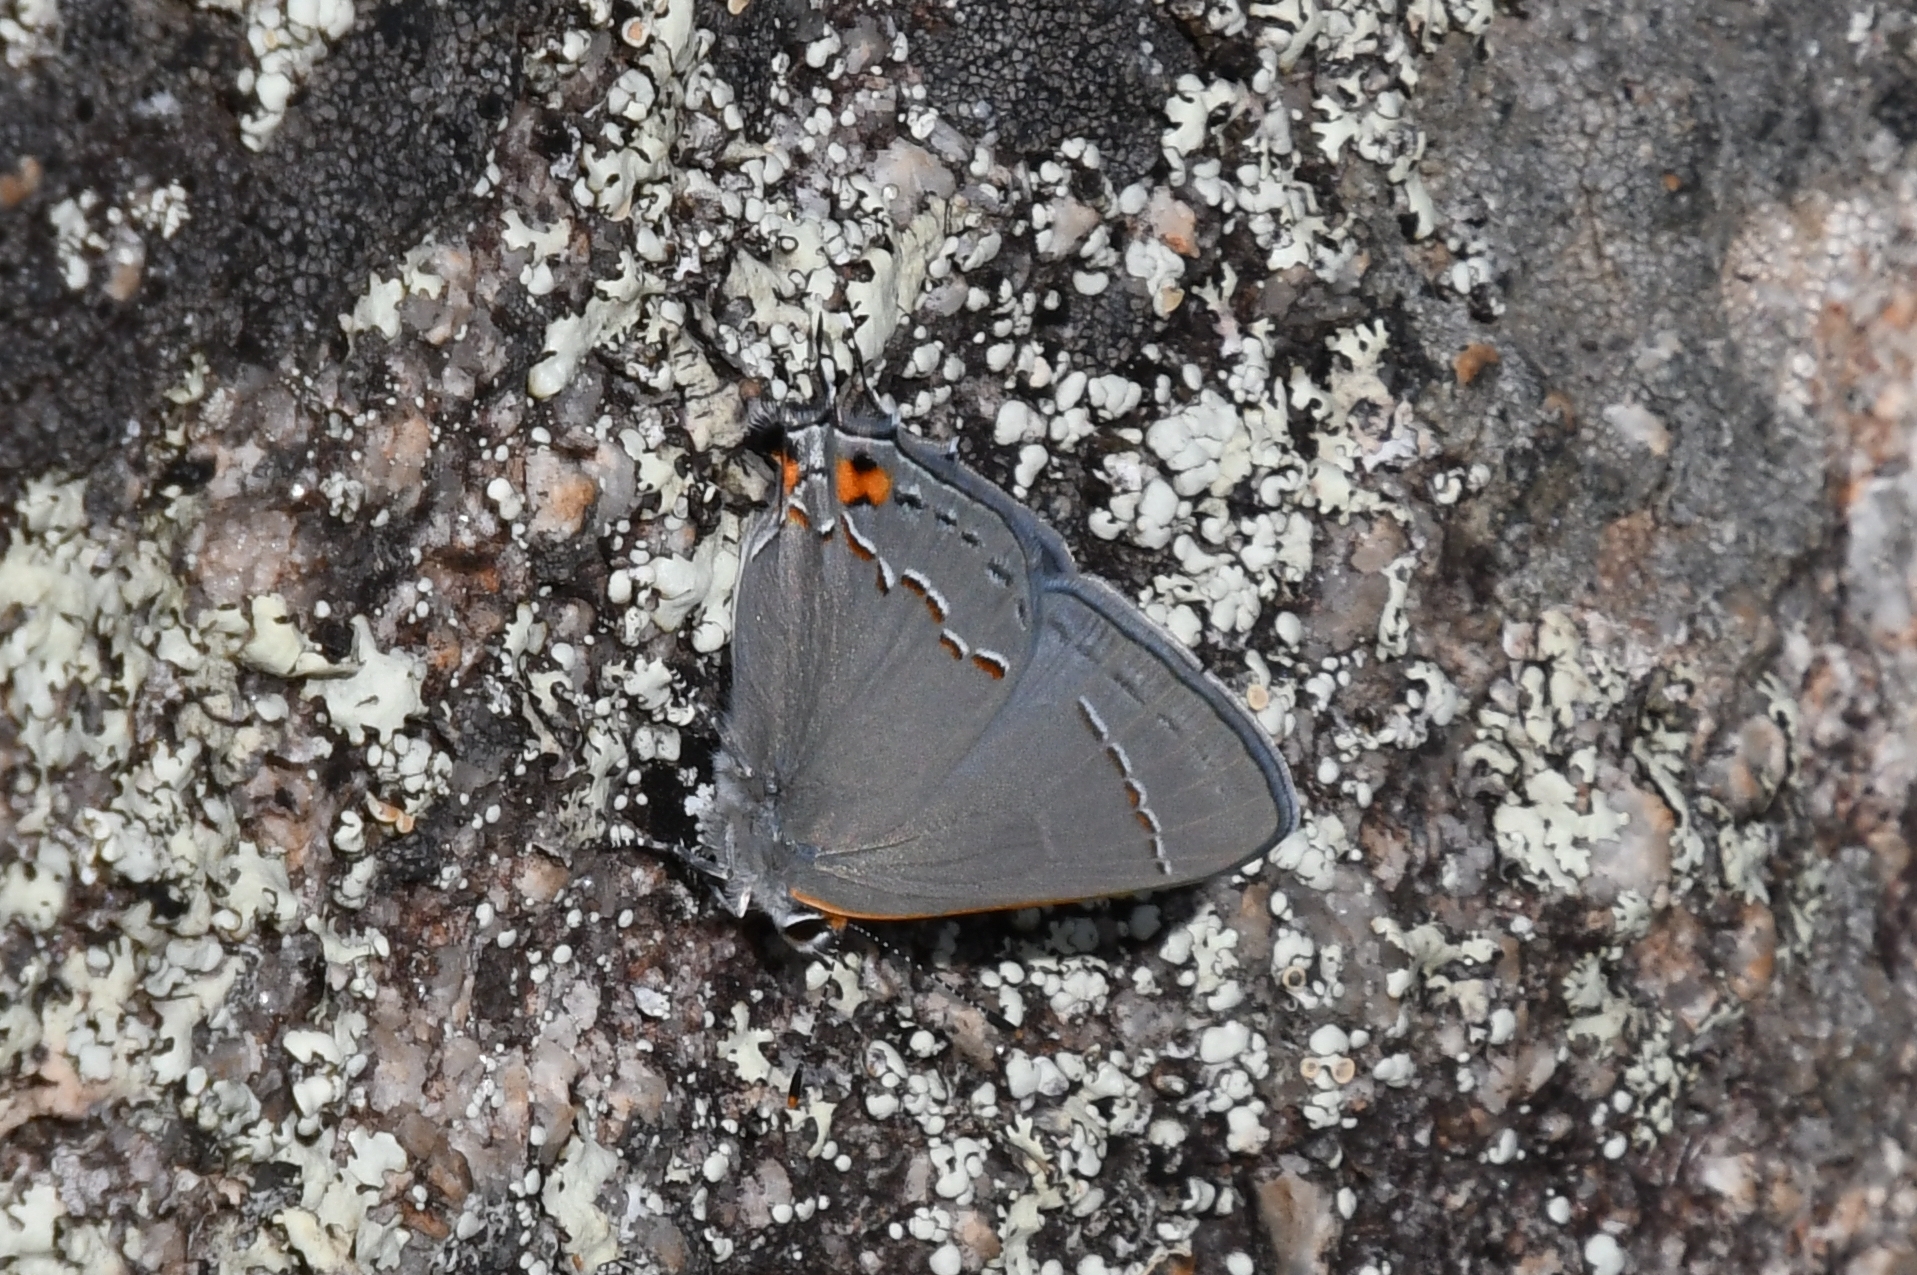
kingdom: Animalia
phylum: Arthropoda
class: Insecta
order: Lepidoptera
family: Lycaenidae
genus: Strymon
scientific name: Strymon melinus
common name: Gray hairstreak
